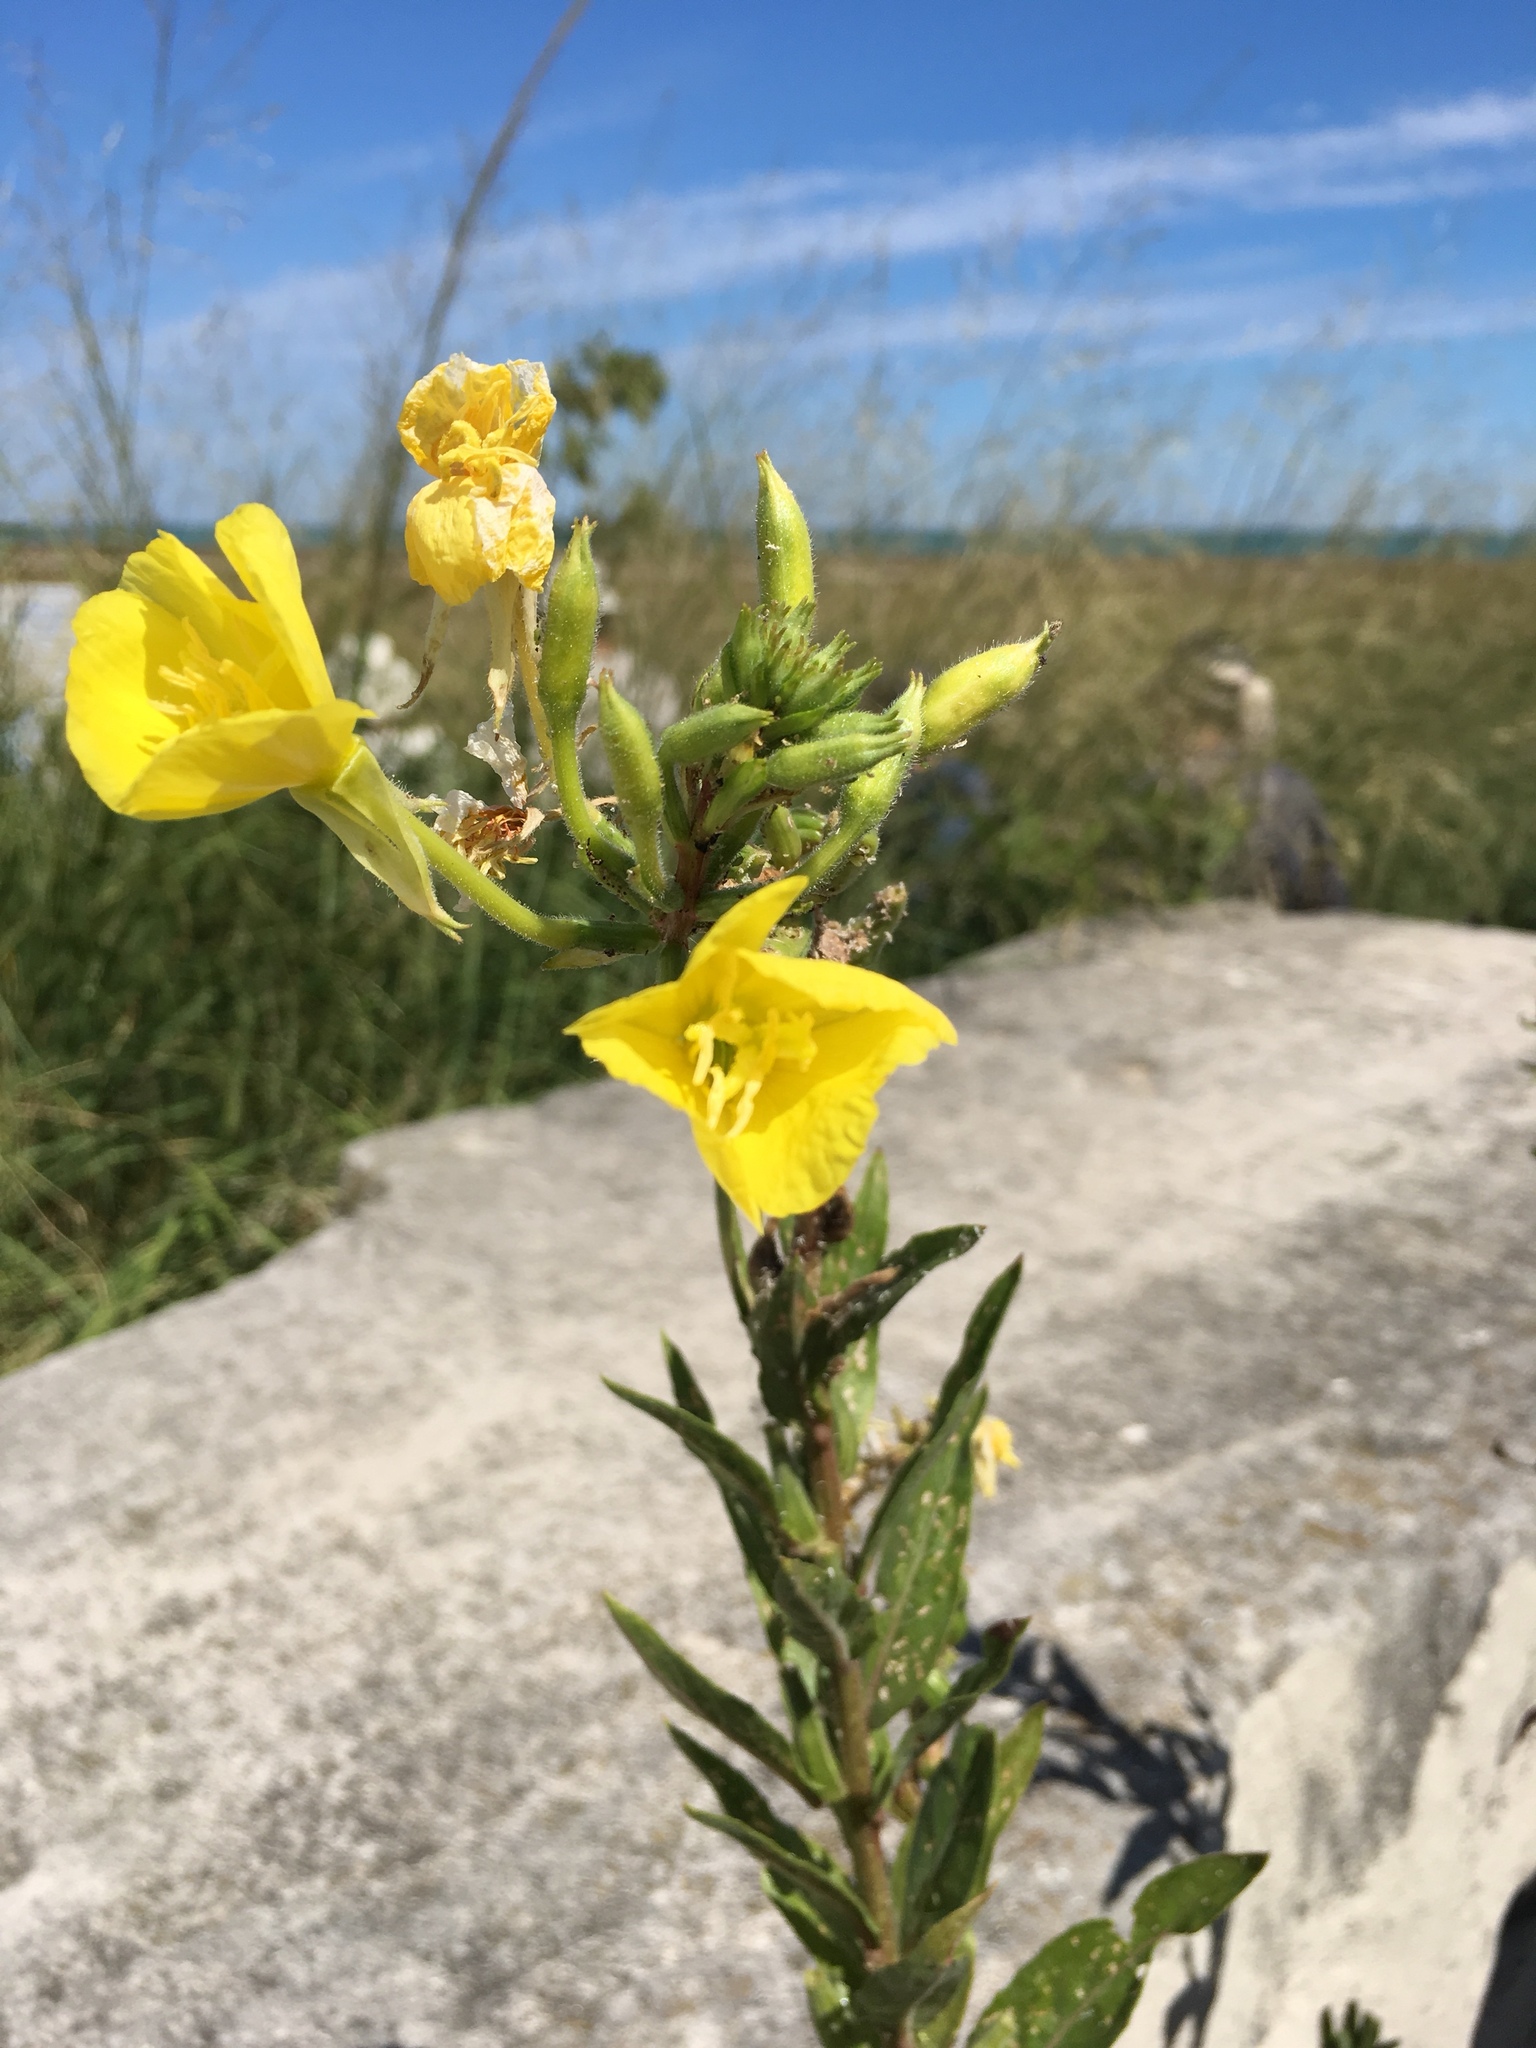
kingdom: Plantae
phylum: Tracheophyta
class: Magnoliopsida
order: Myrtales
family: Onagraceae
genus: Oenothera
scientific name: Oenothera biennis
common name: Common evening-primrose
